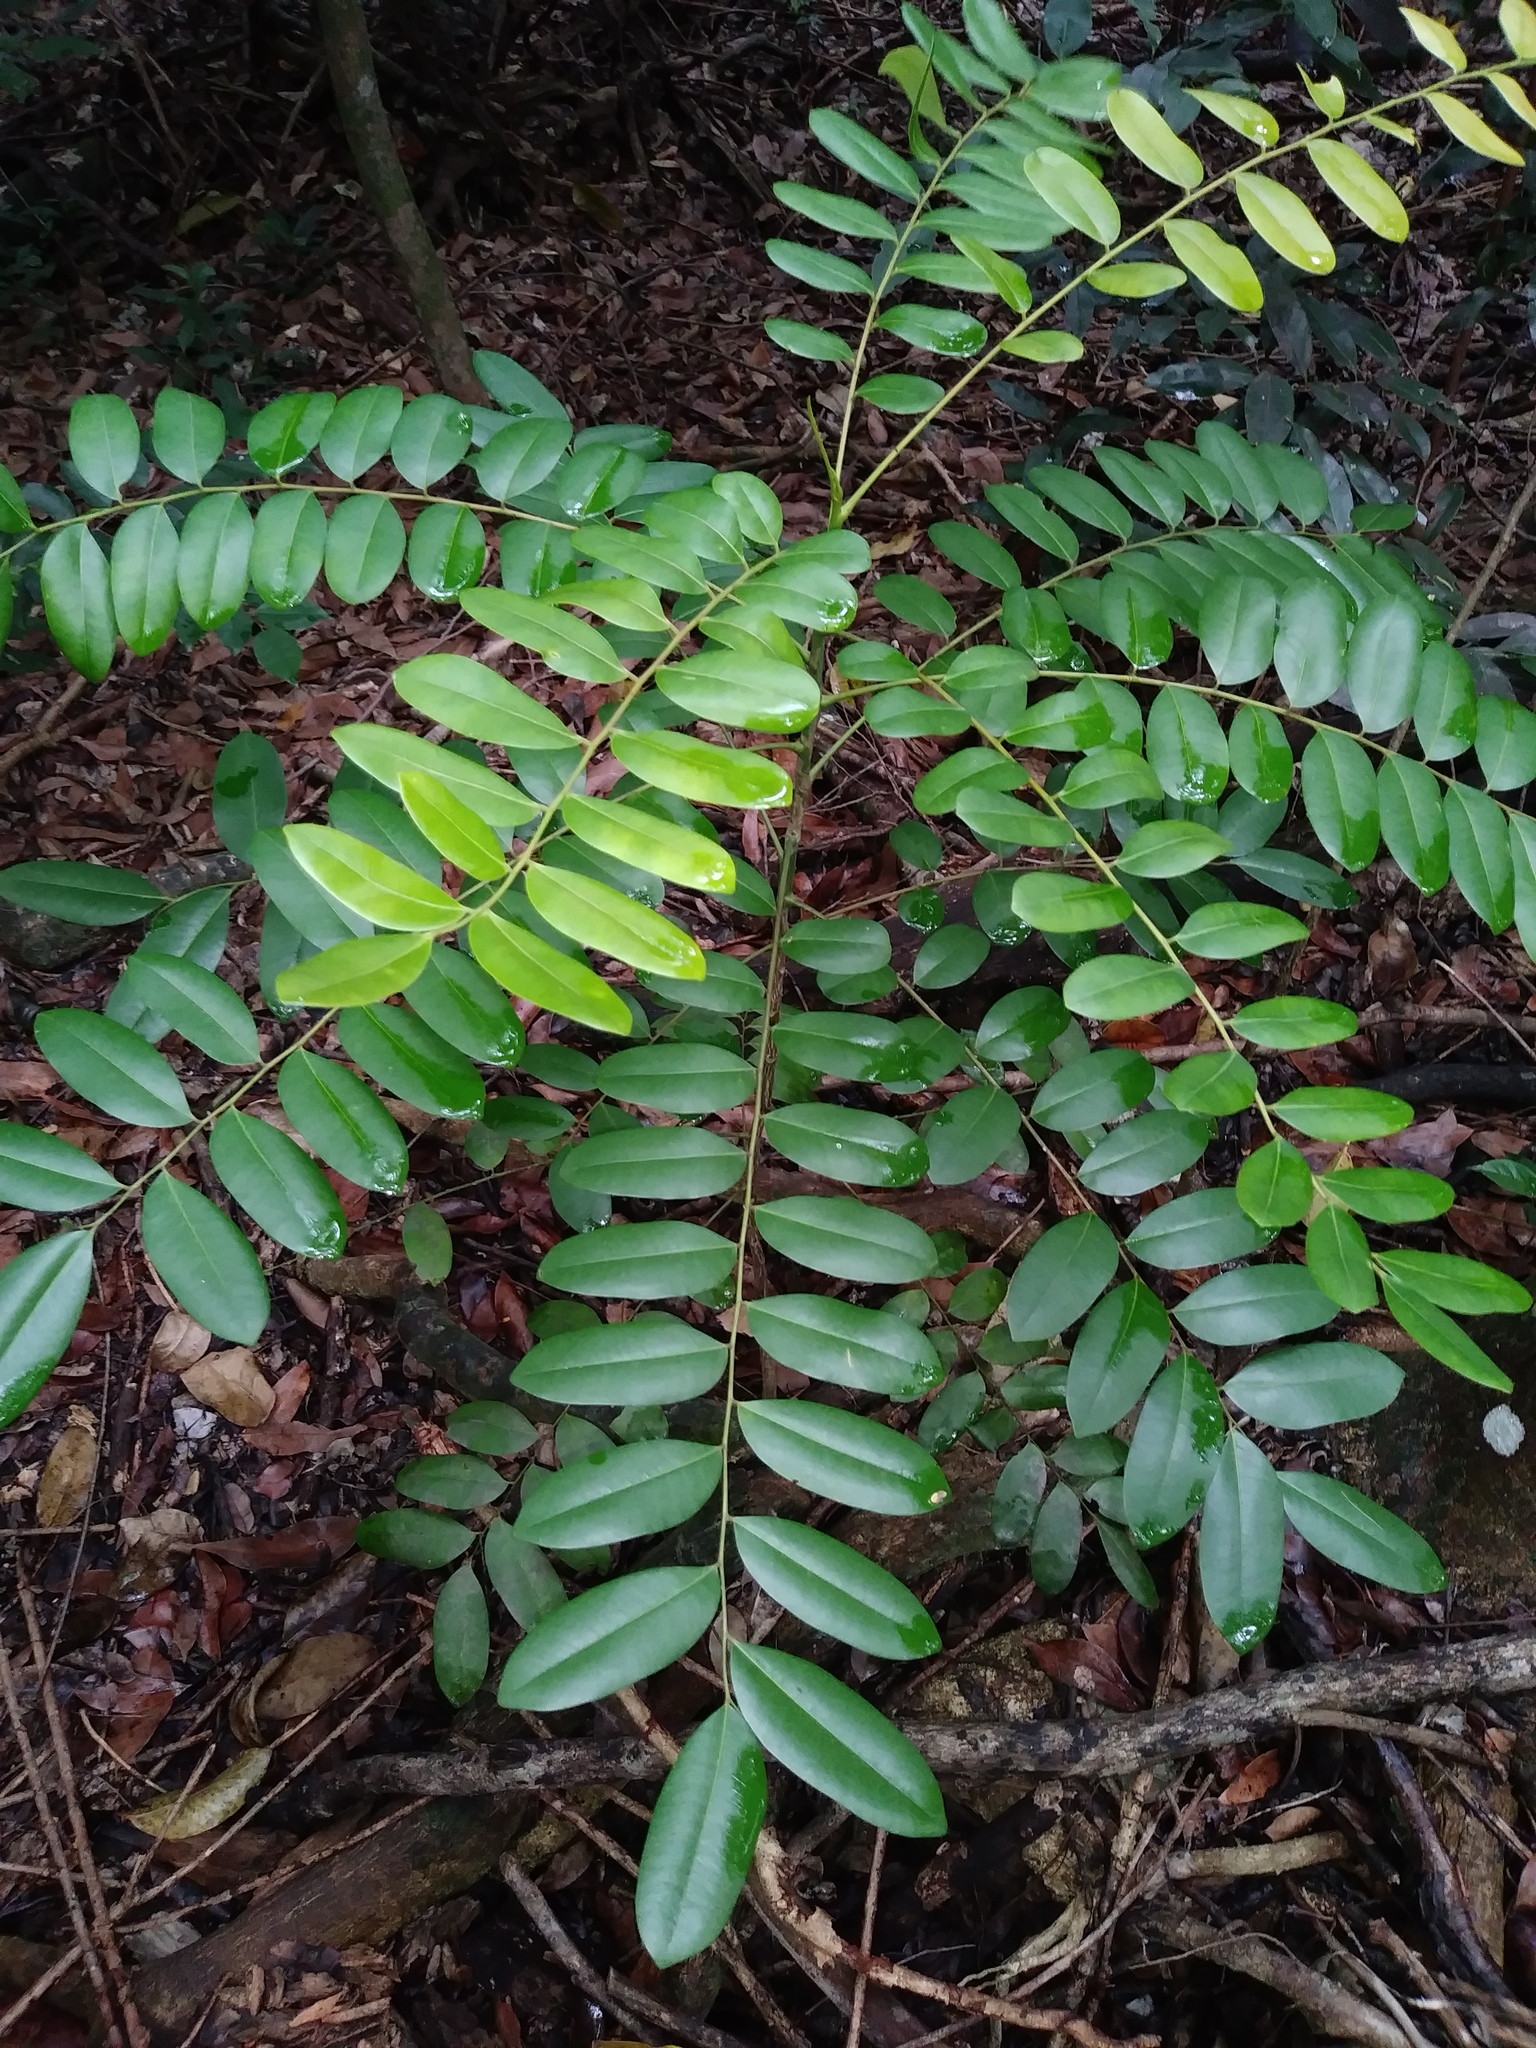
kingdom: Plantae
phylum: Tracheophyta
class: Magnoliopsida
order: Sapindales
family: Simaroubaceae
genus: Simarouba
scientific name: Simarouba glauca
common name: Dysentery-bark
